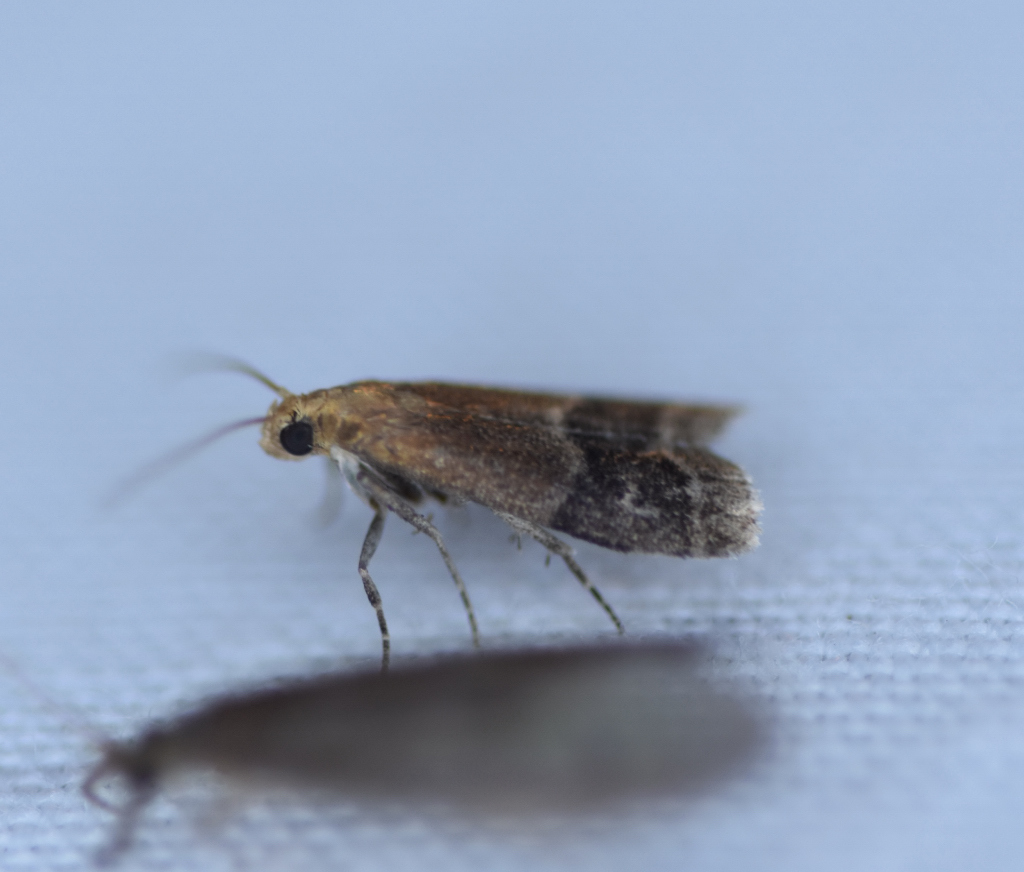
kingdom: Animalia
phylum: Arthropoda
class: Insecta
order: Lepidoptera
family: Pyralidae
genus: Eulogia
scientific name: Eulogia ochrifrontella
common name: Broad-banded eulogia moth
